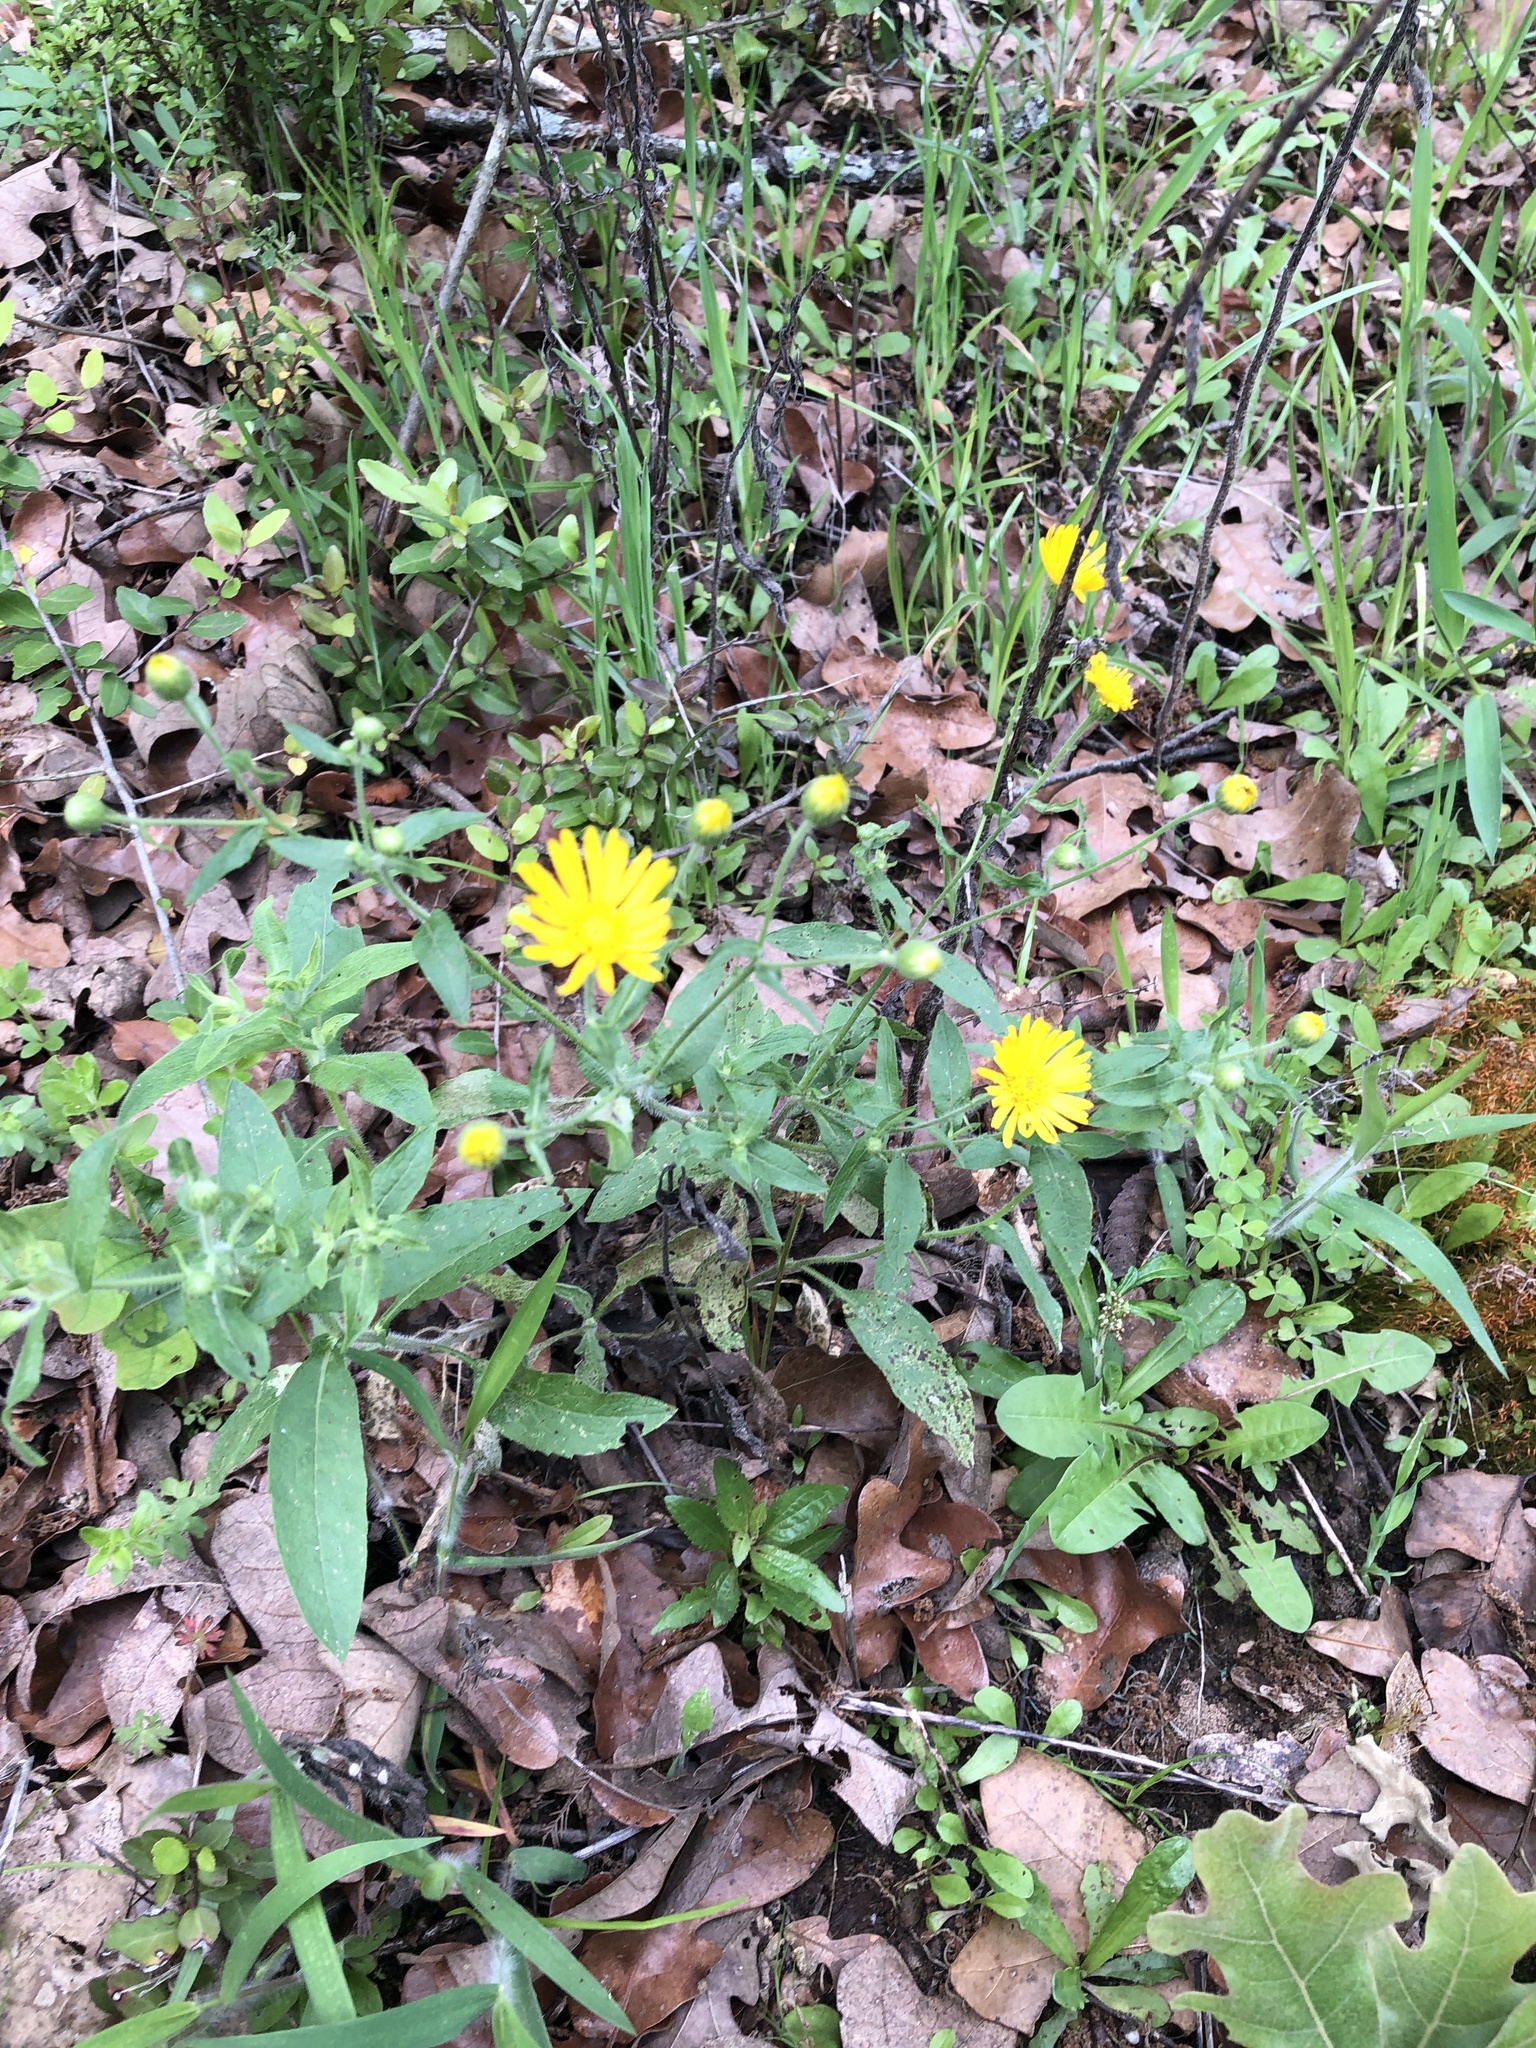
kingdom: Plantae
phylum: Tracheophyta
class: Magnoliopsida
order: Asterales
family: Asteraceae
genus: Heterotheca
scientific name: Heterotheca subaxillaris
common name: Camphorweed
